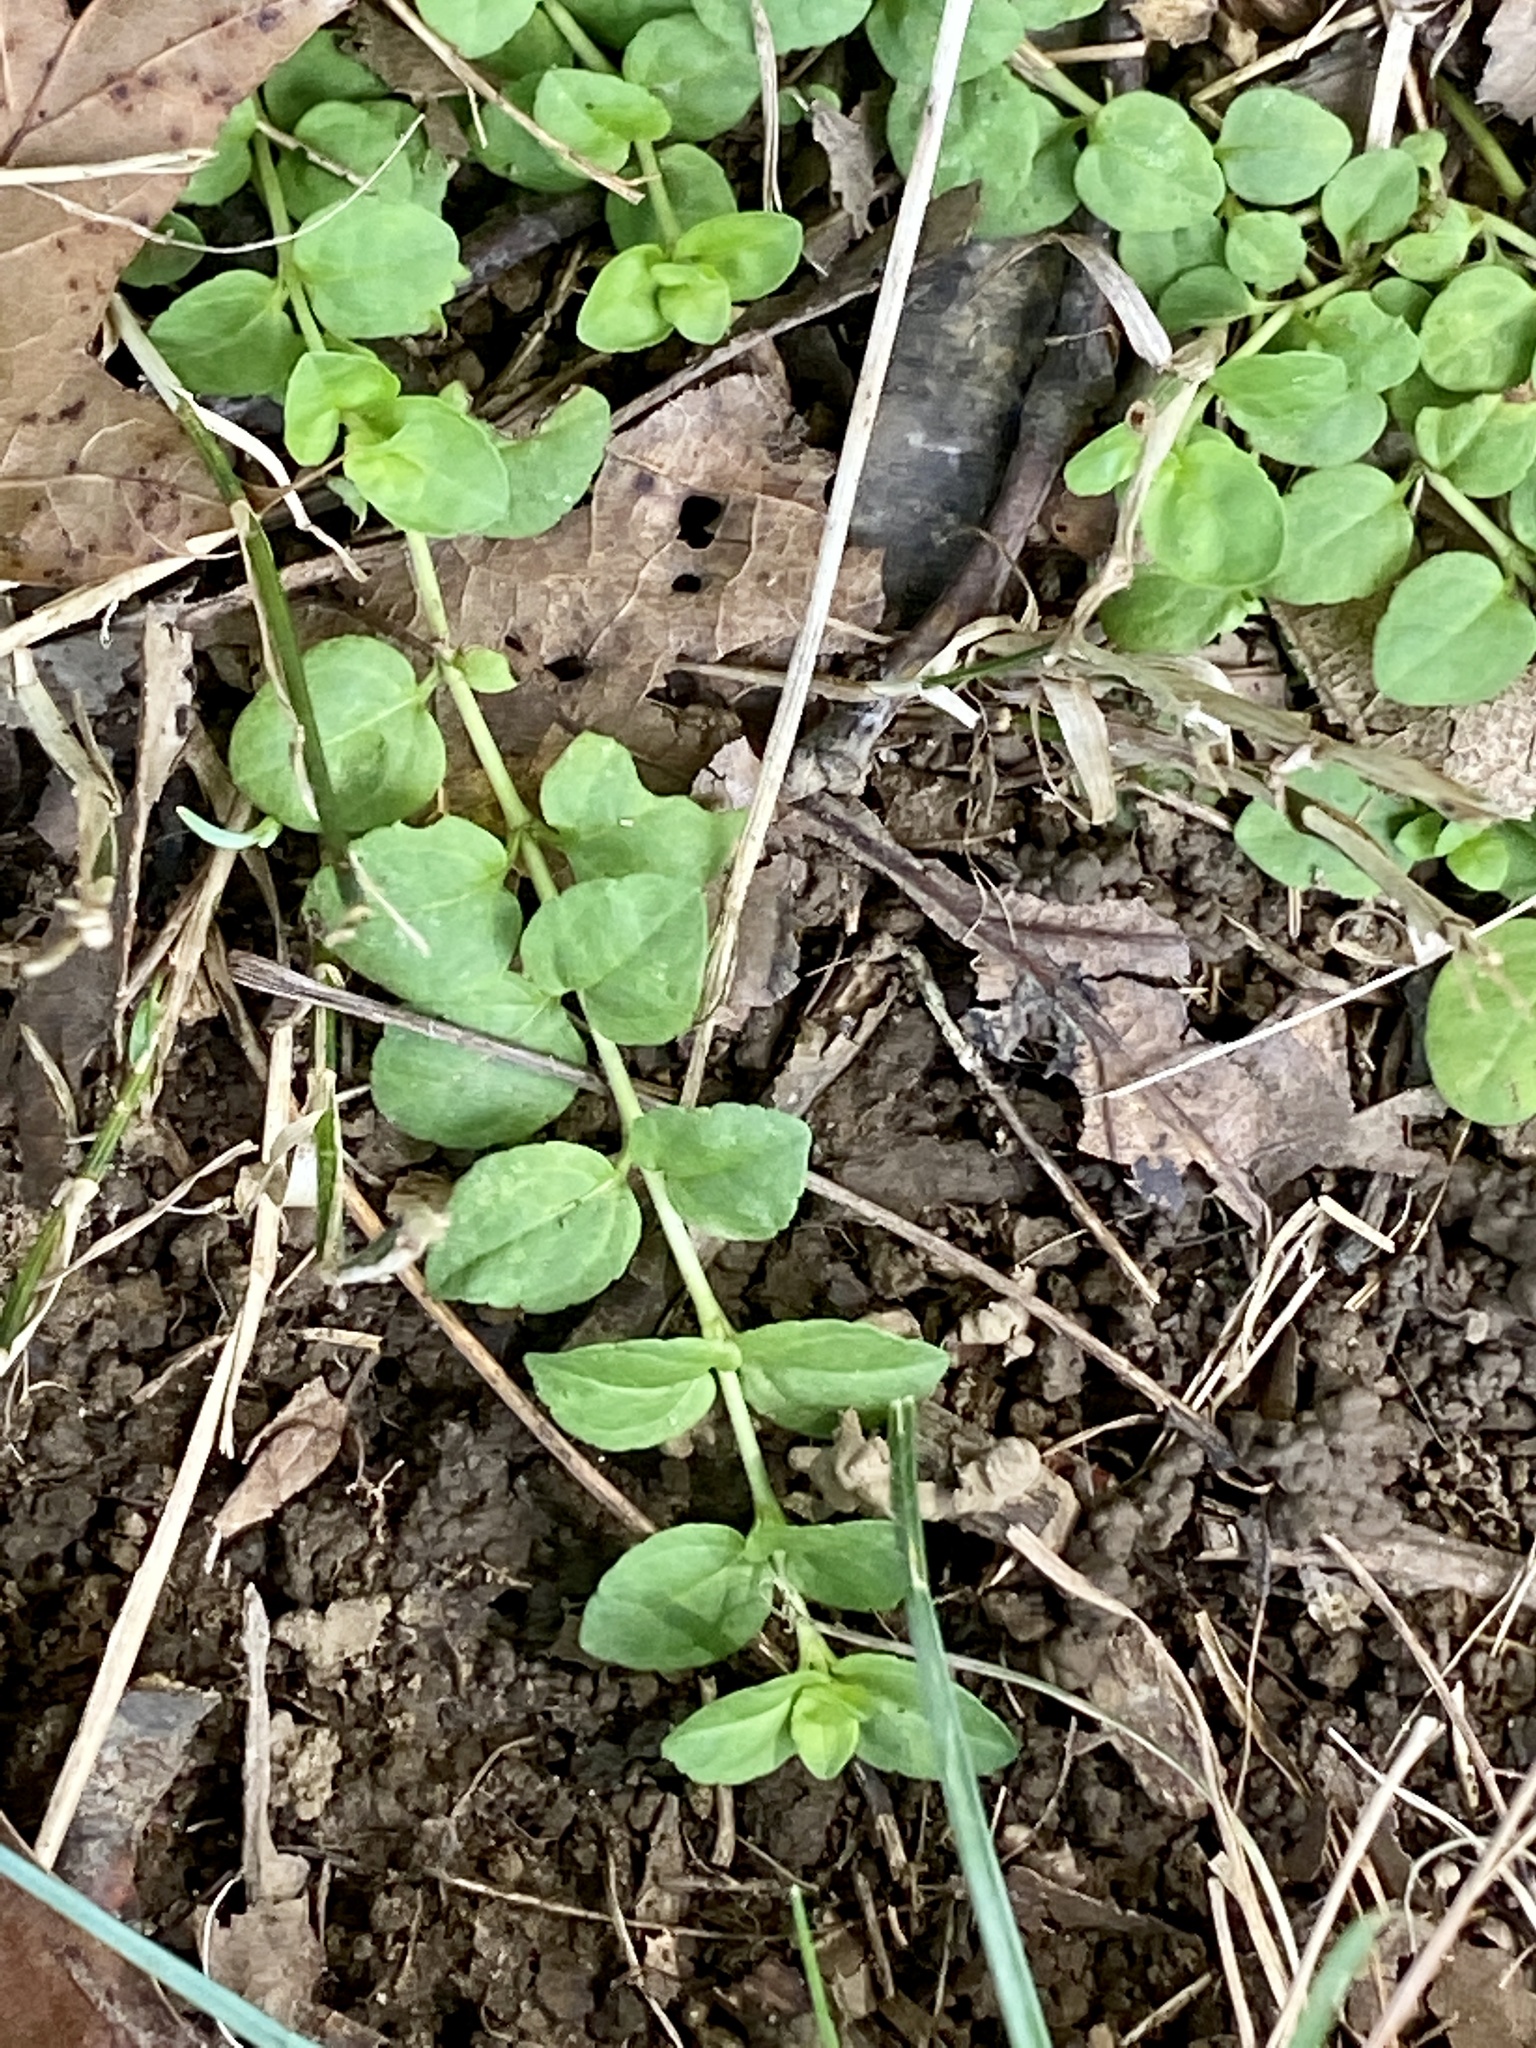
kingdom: Plantae
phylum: Tracheophyta
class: Magnoliopsida
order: Lamiales
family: Plantaginaceae
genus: Veronica
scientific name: Veronica serpyllifolia
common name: Thyme-leaved speedwell
